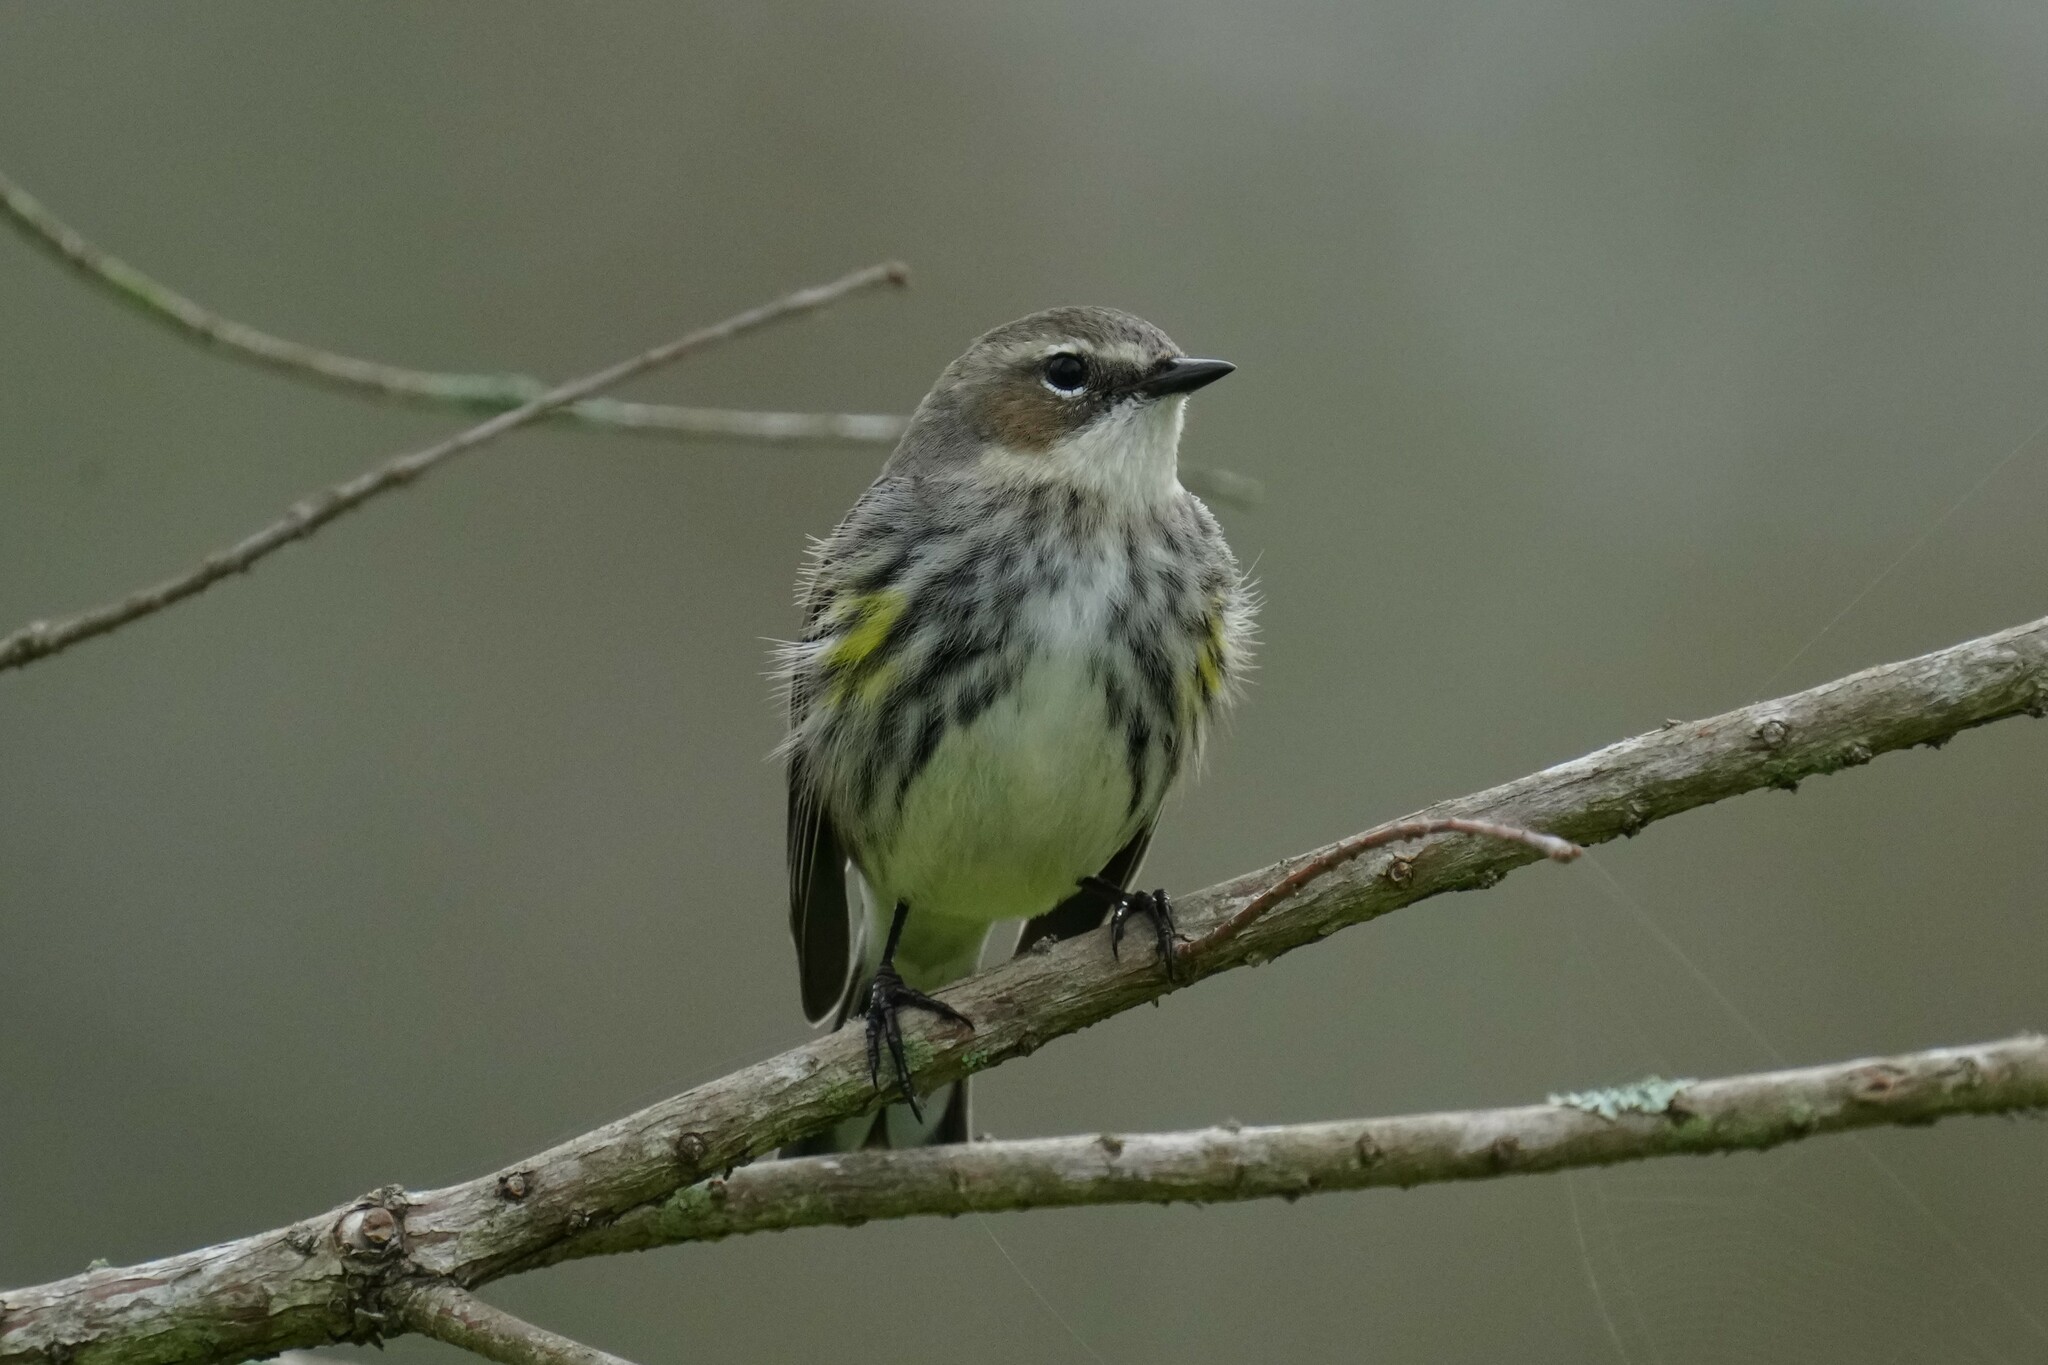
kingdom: Animalia
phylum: Chordata
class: Aves
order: Passeriformes
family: Parulidae
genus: Setophaga
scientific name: Setophaga coronata
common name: Myrtle warbler
